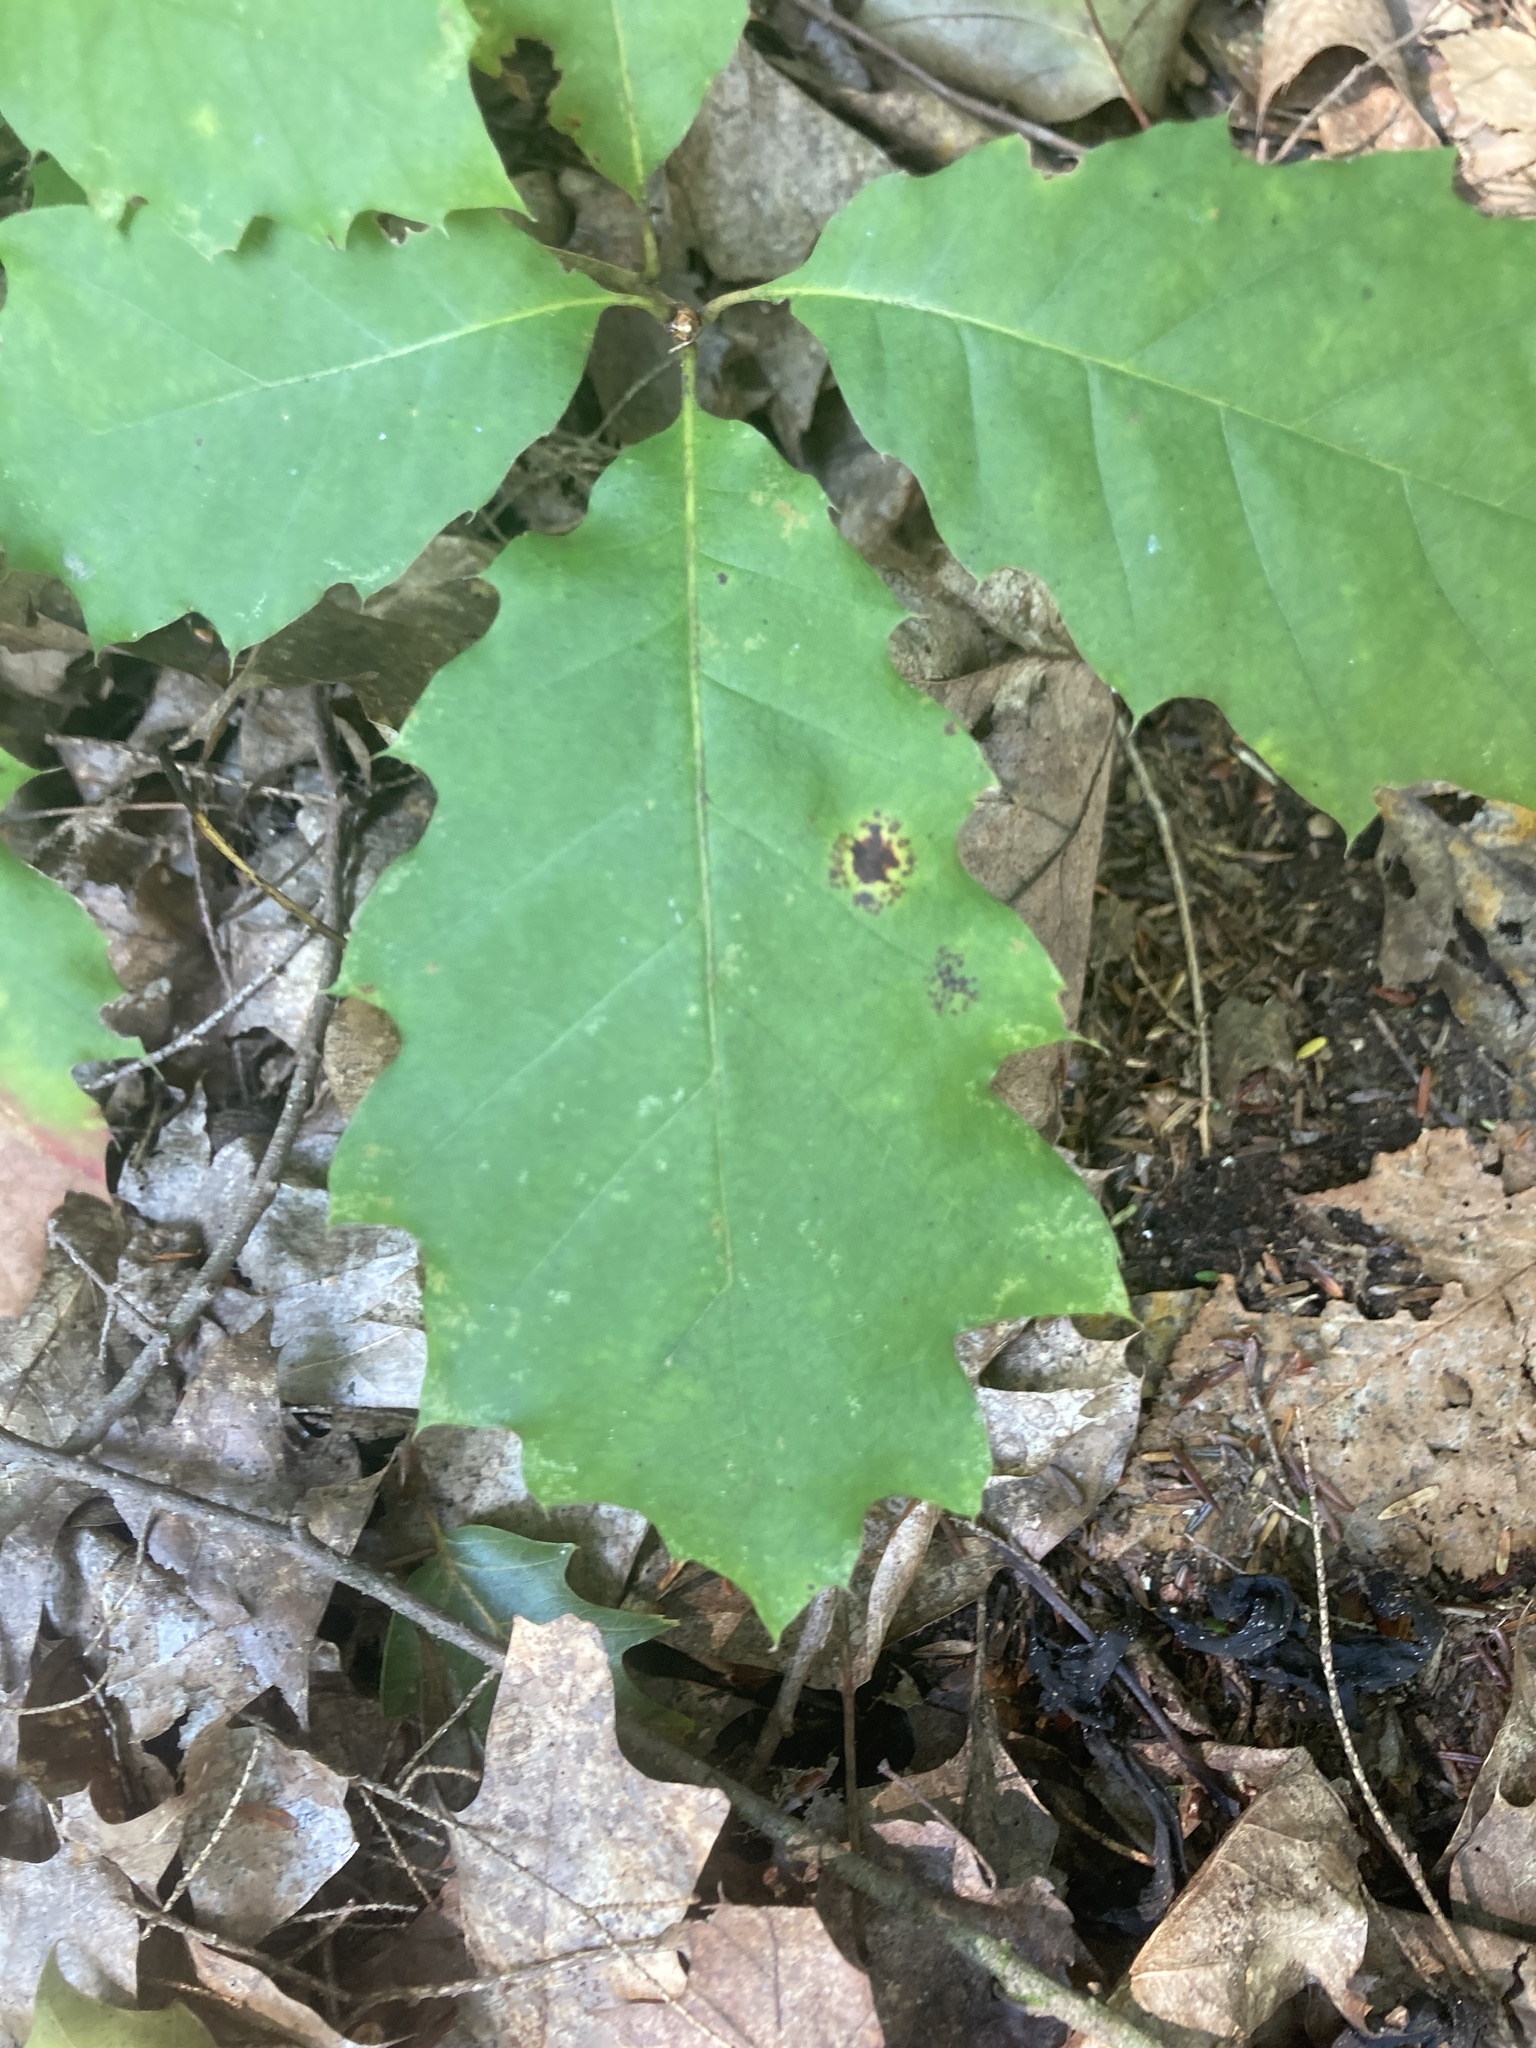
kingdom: Plantae
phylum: Tracheophyta
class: Magnoliopsida
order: Fagales
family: Fagaceae
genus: Quercus
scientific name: Quercus rubra
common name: Red oak
